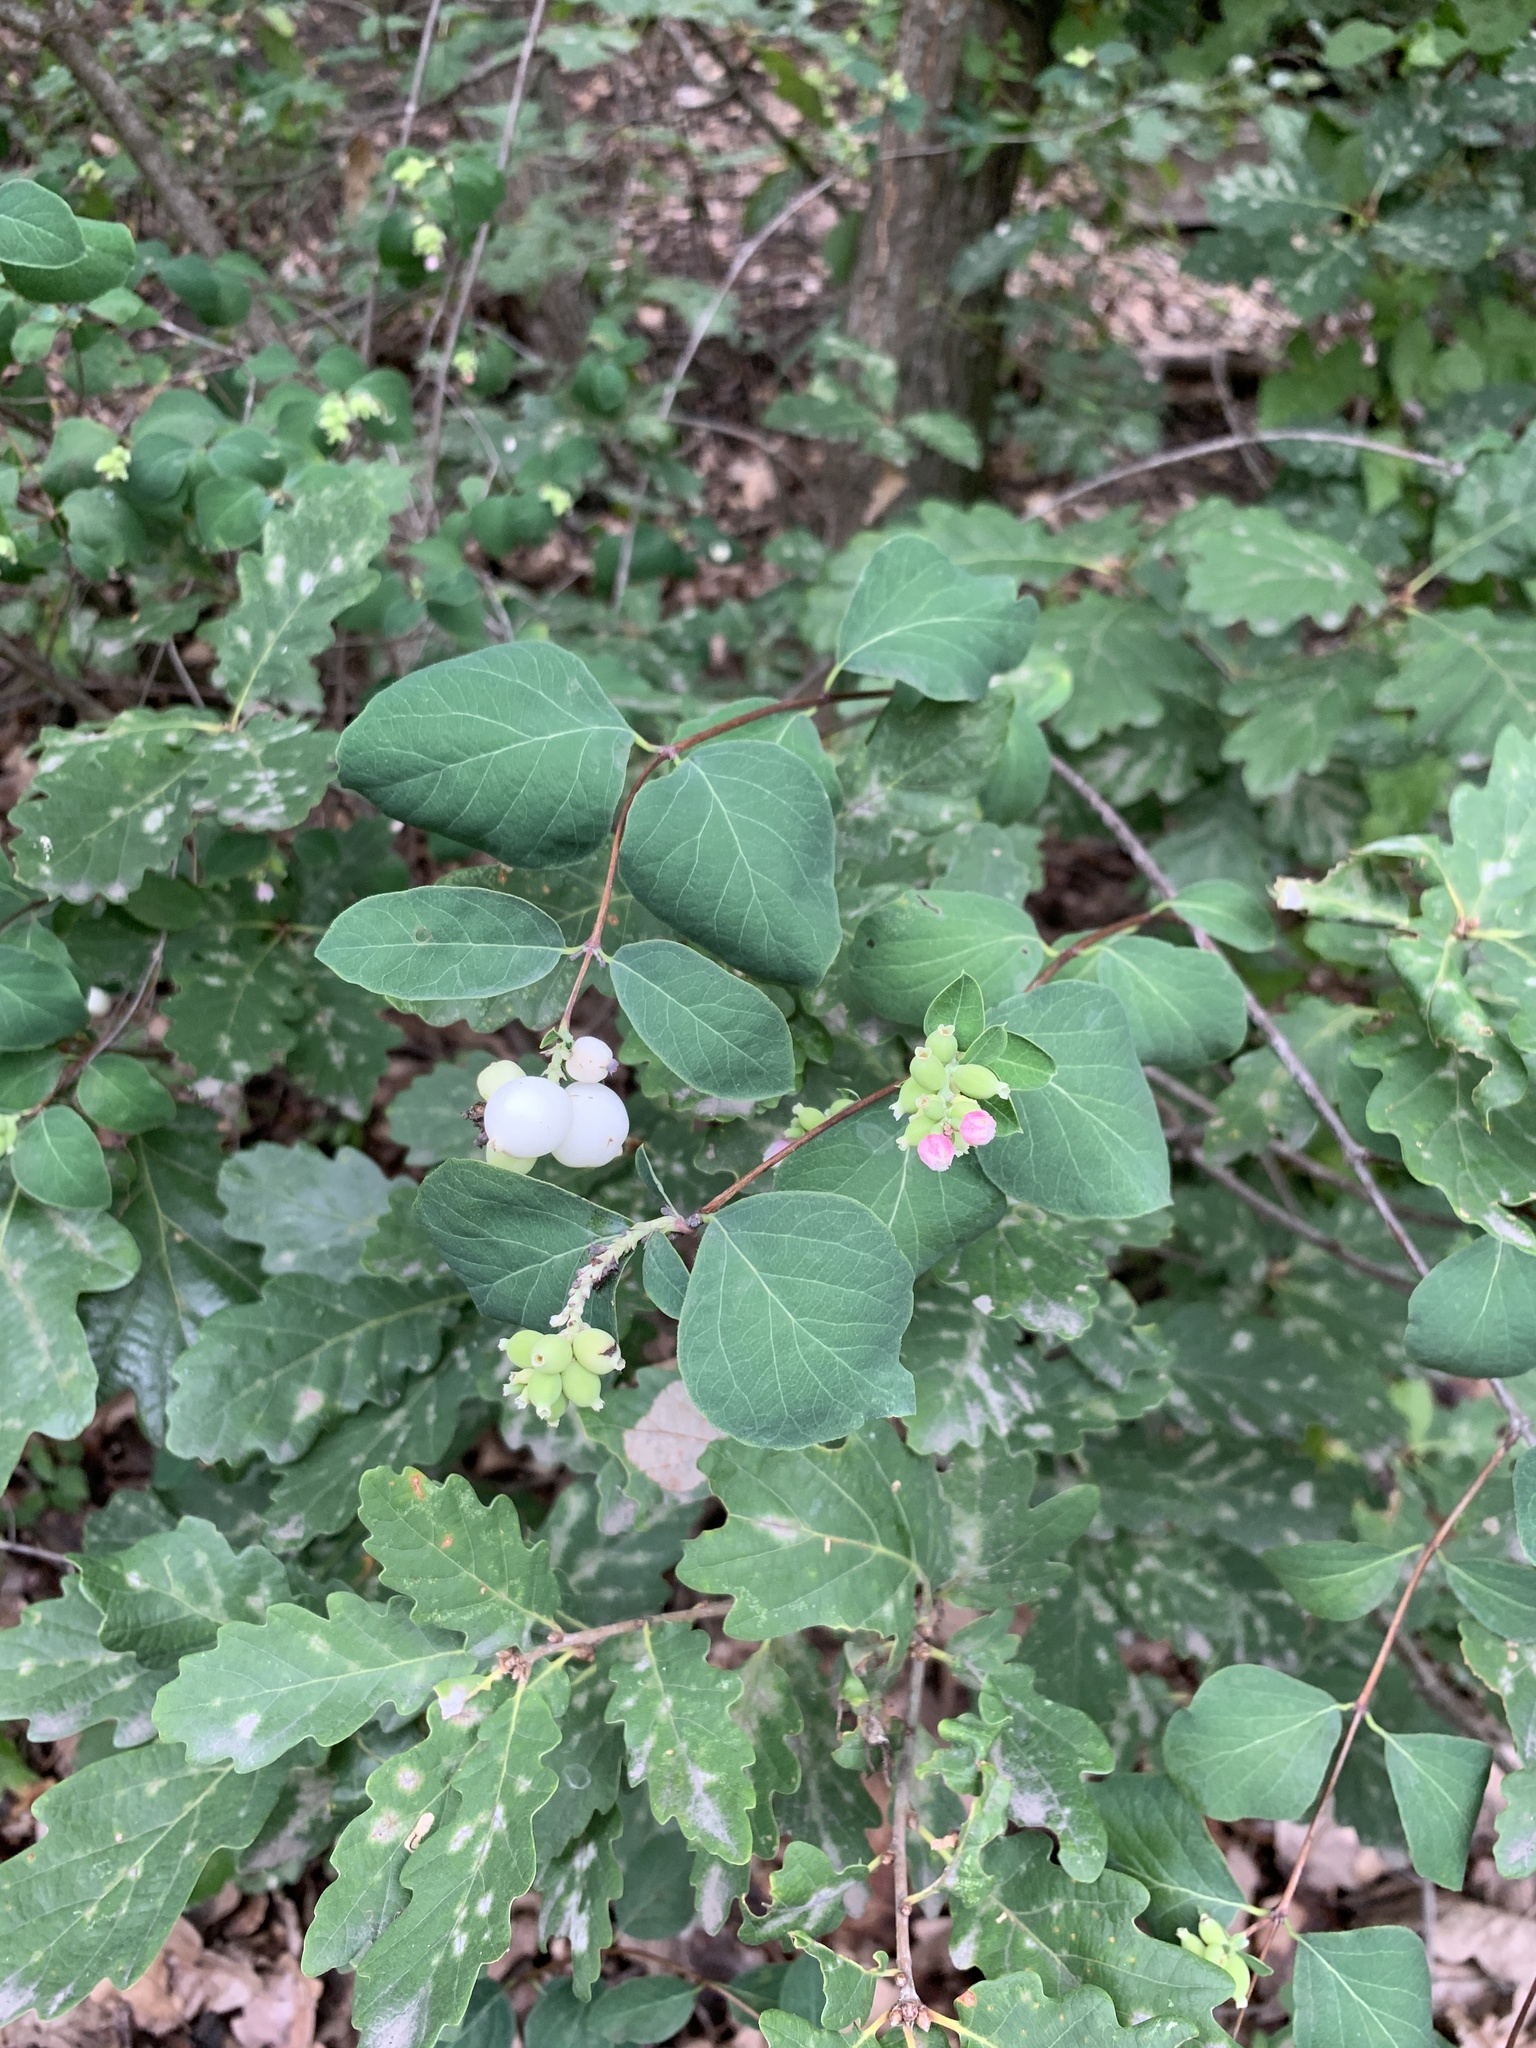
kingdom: Plantae
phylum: Tracheophyta
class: Magnoliopsida
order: Dipsacales
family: Caprifoliaceae
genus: Symphoricarpos
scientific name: Symphoricarpos albus
